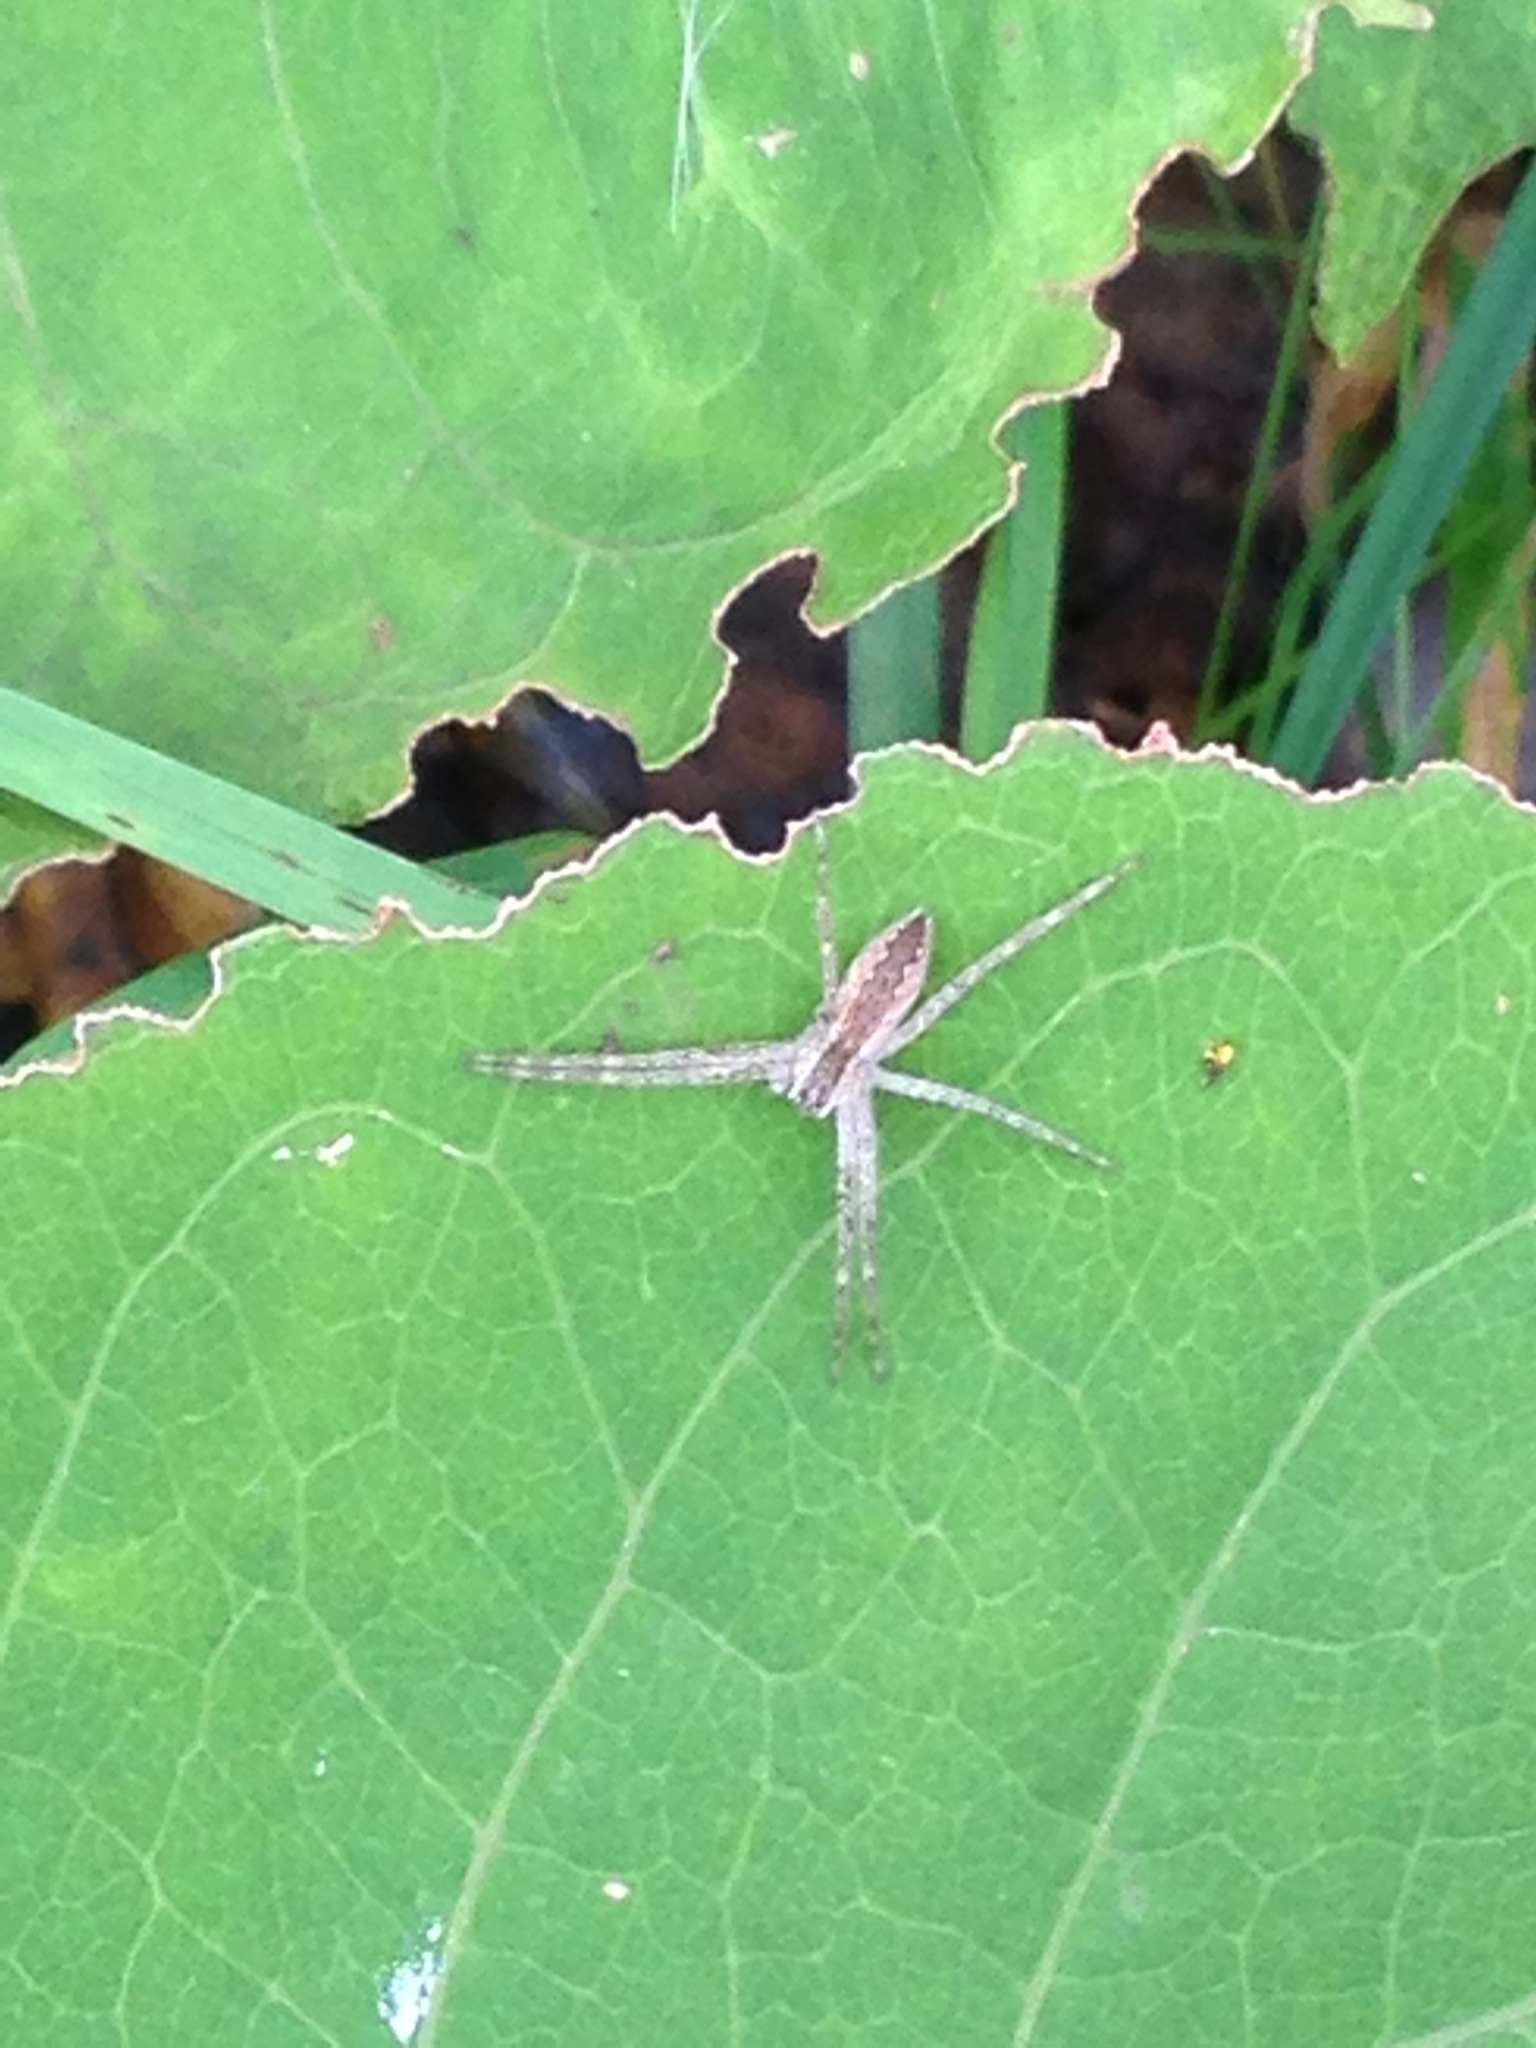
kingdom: Animalia
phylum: Arthropoda
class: Arachnida
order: Araneae
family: Pisauridae
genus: Pisaurina
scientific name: Pisaurina mira
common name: American nursery web spider
